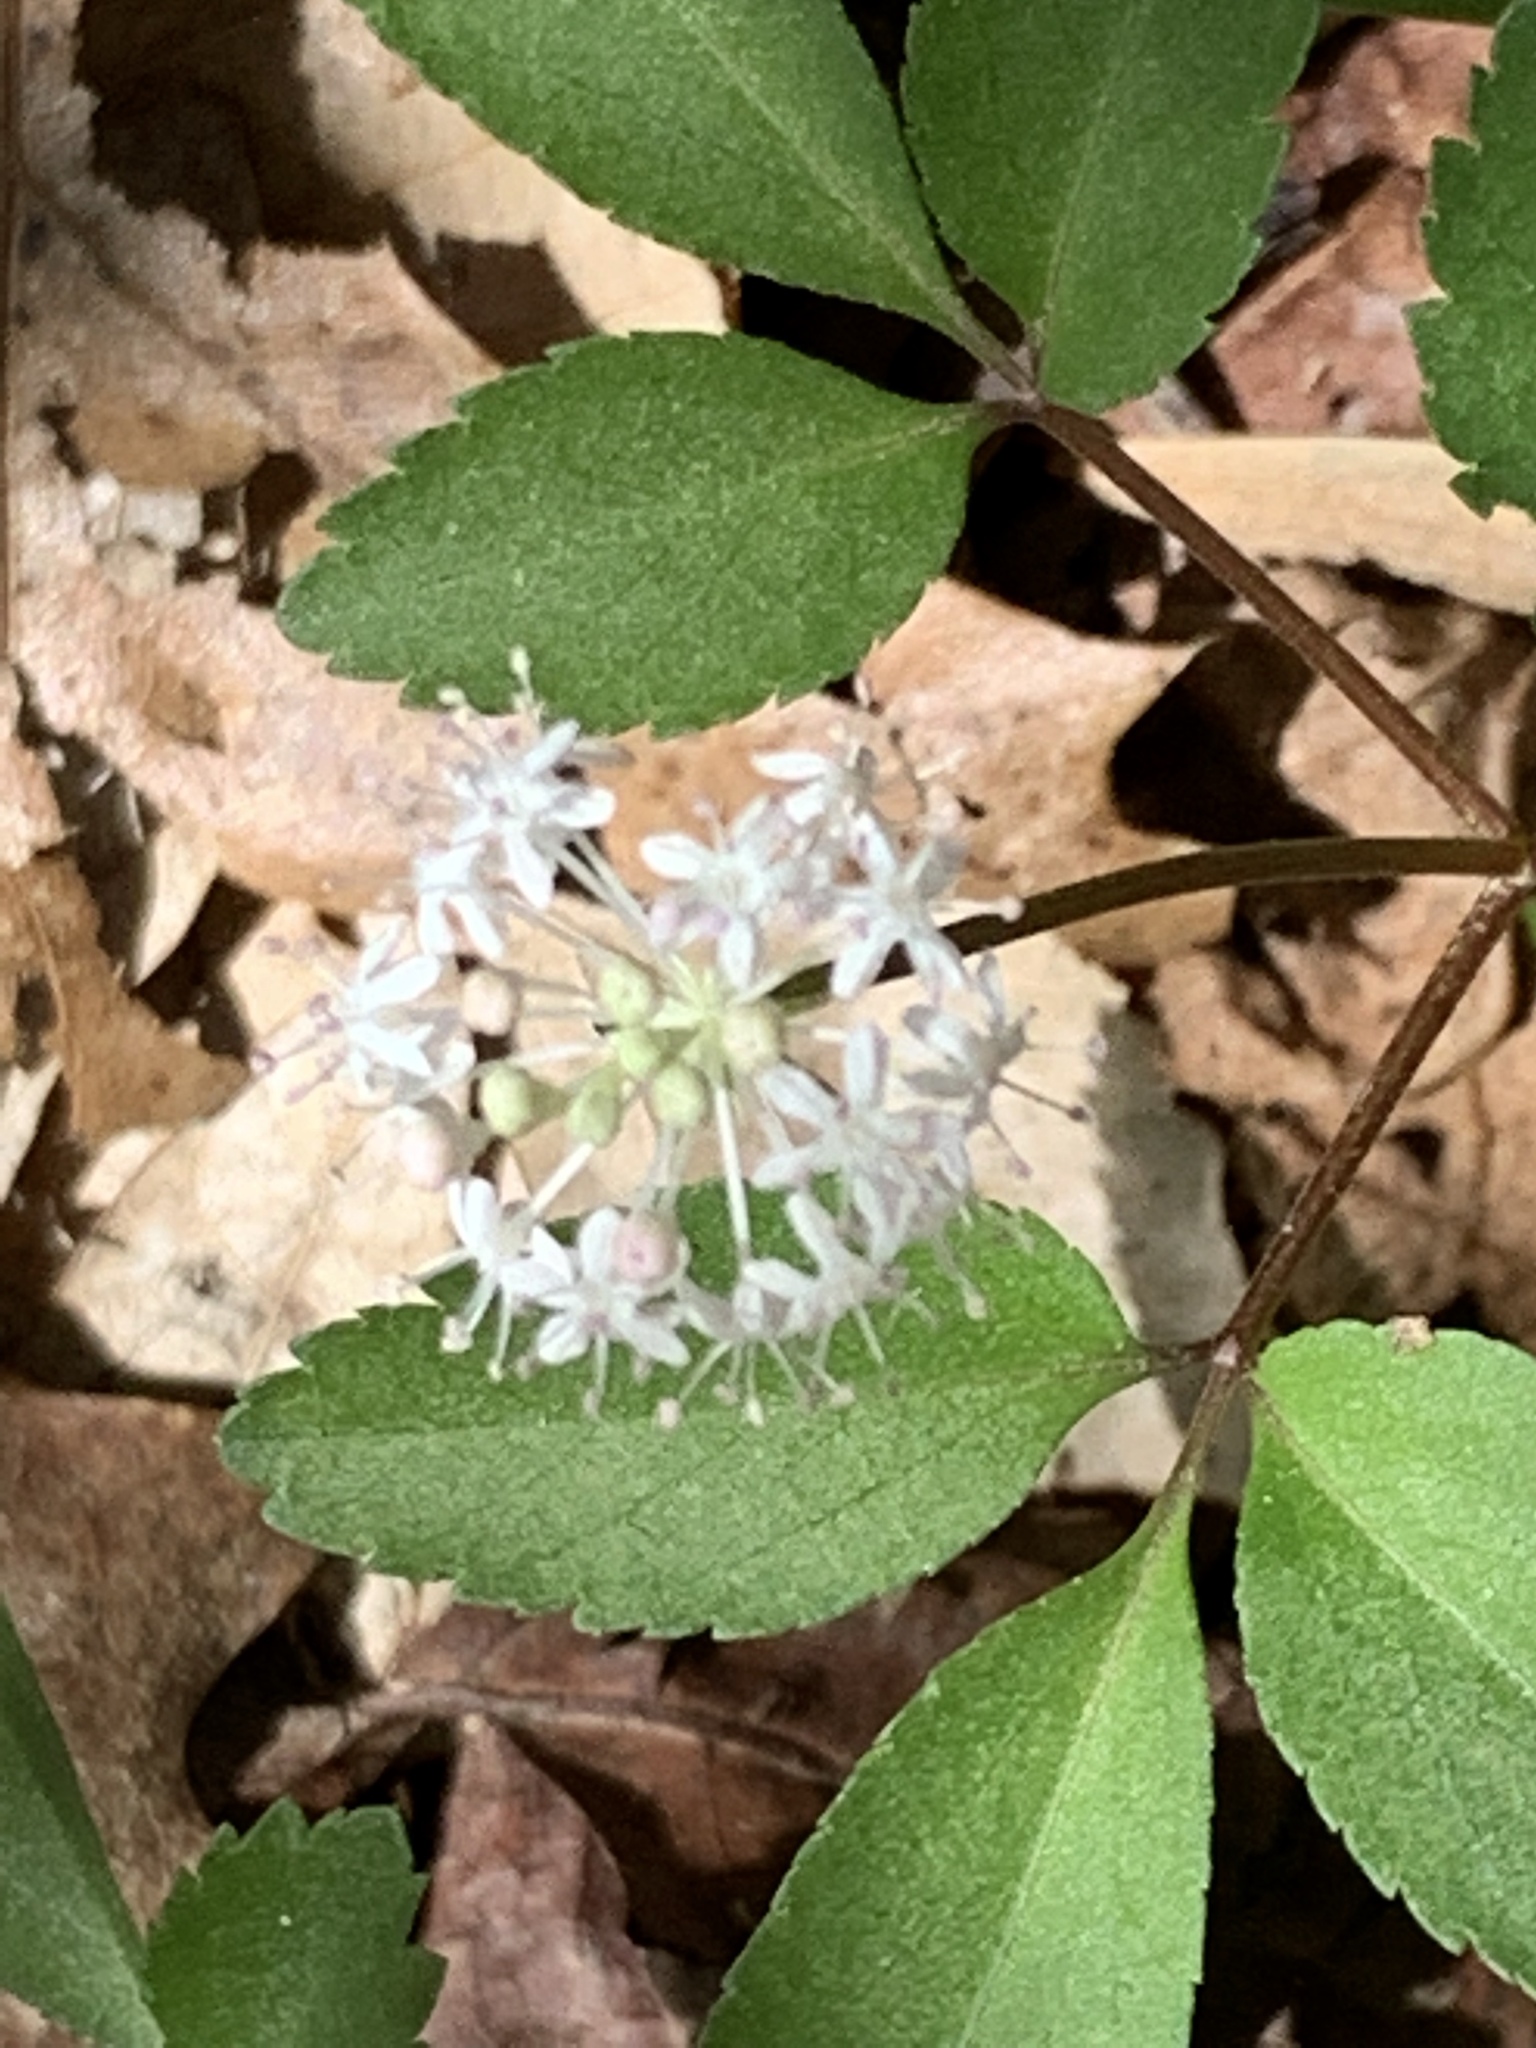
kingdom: Plantae
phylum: Tracheophyta
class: Magnoliopsida
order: Apiales
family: Araliaceae
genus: Panax
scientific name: Panax trifolius
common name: Dwarf ginseng
